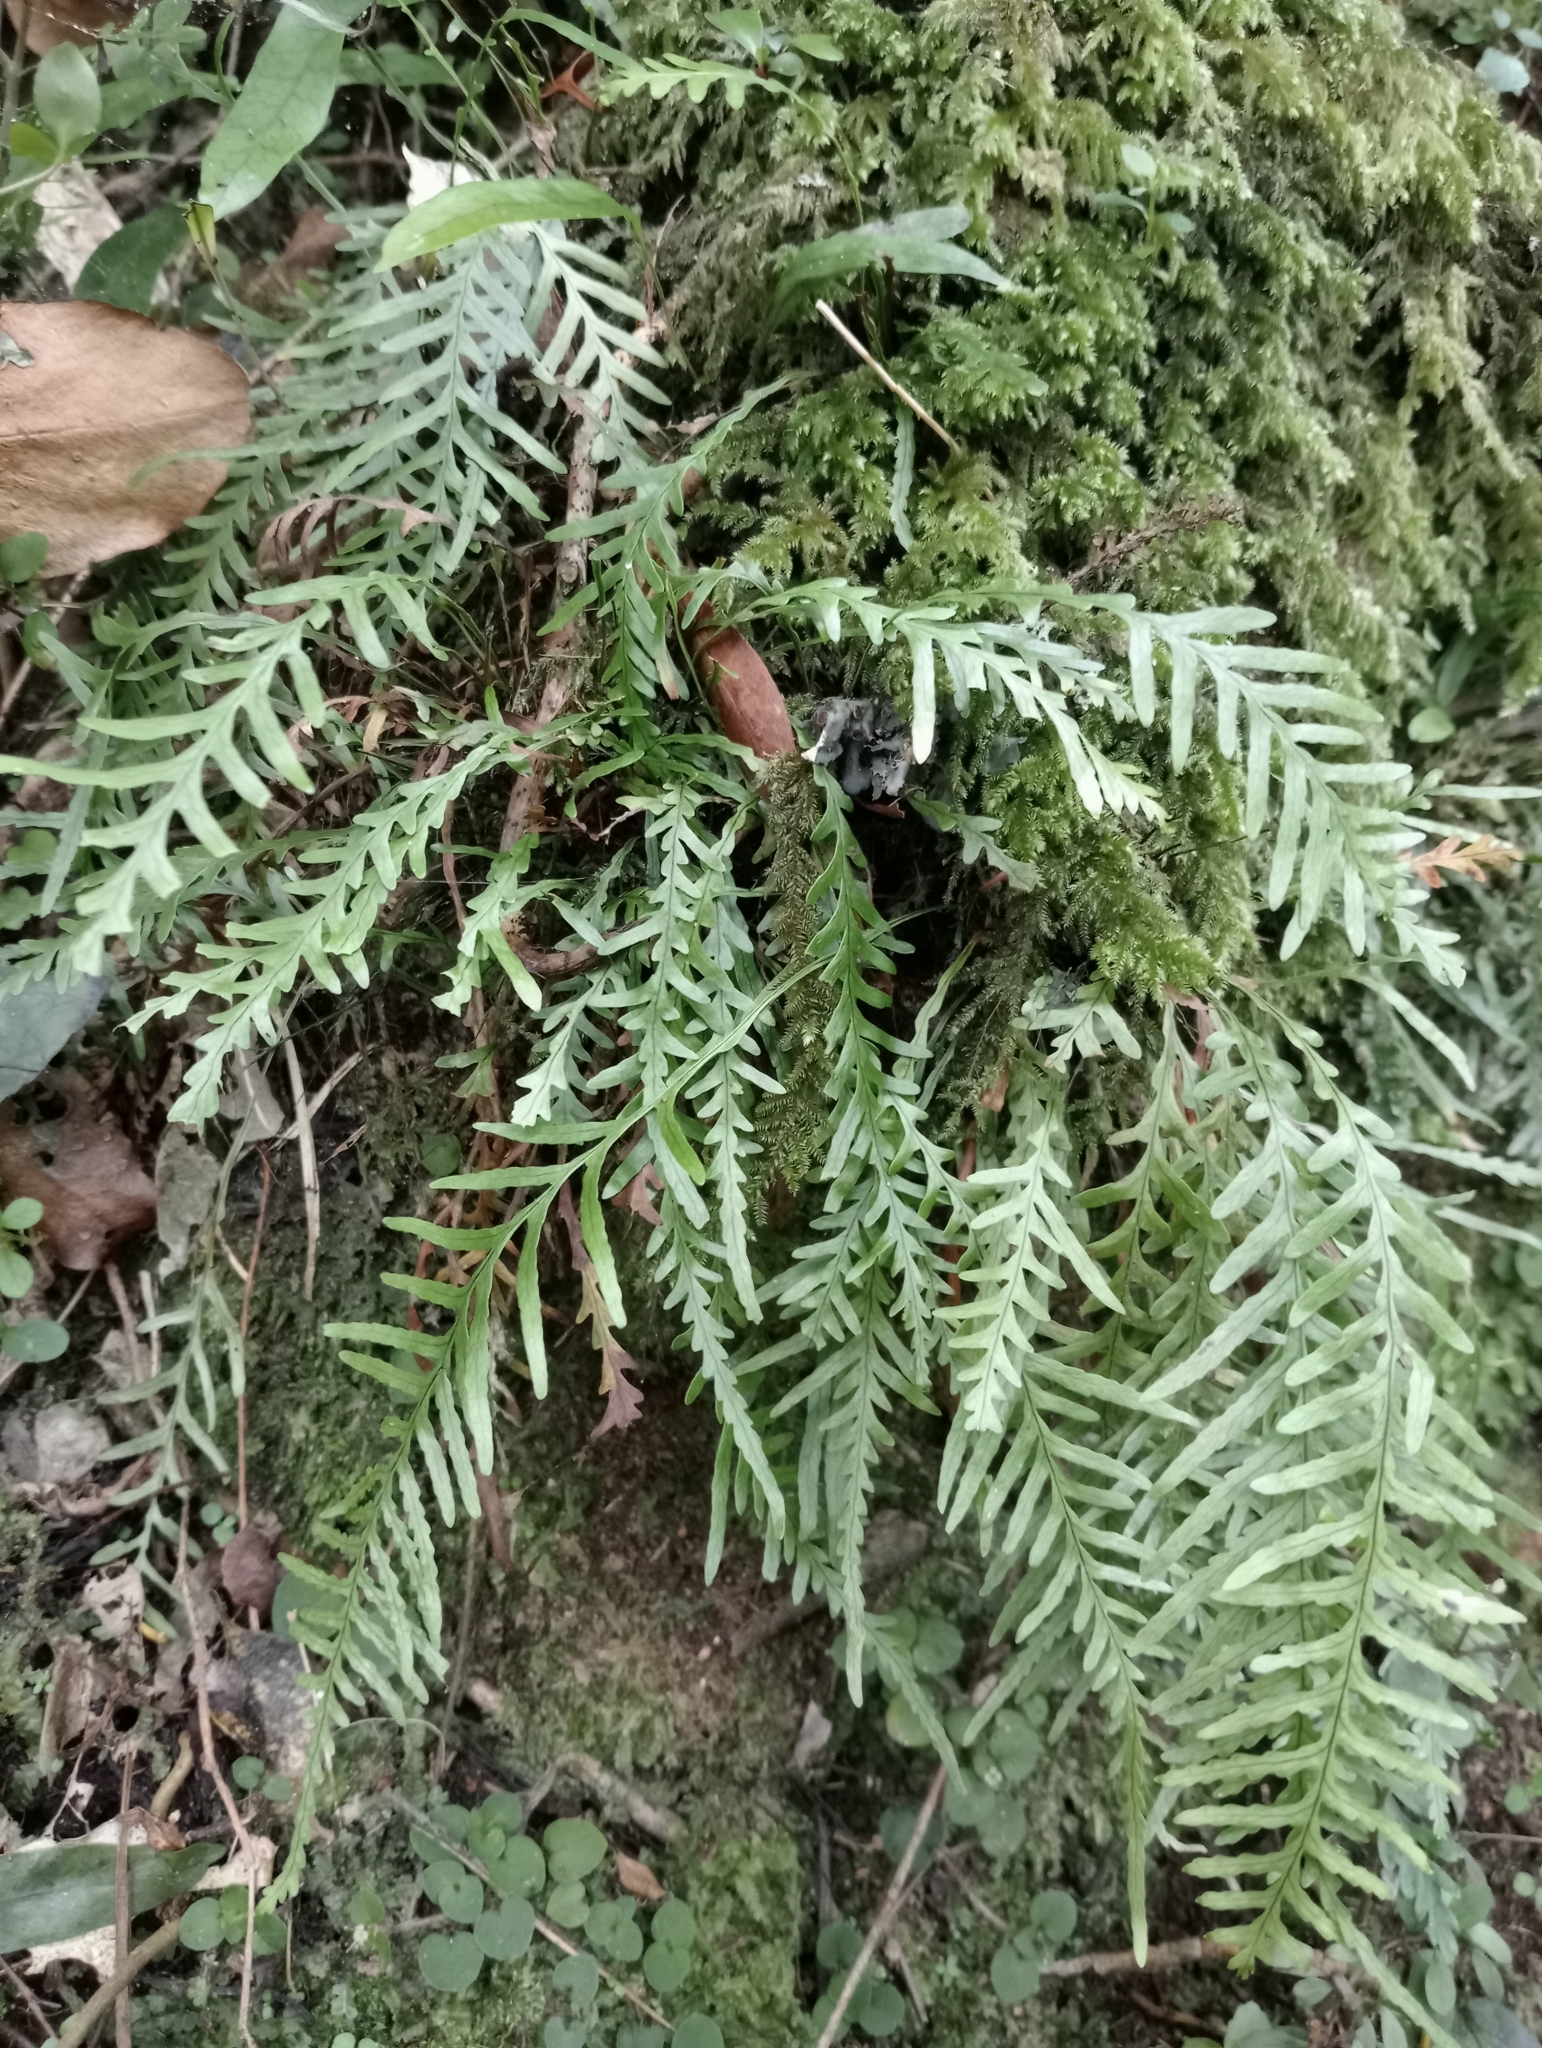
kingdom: Plantae
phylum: Tracheophyta
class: Polypodiopsida
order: Polypodiales
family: Polypodiaceae
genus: Notogrammitis
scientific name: Notogrammitis heterophylla
